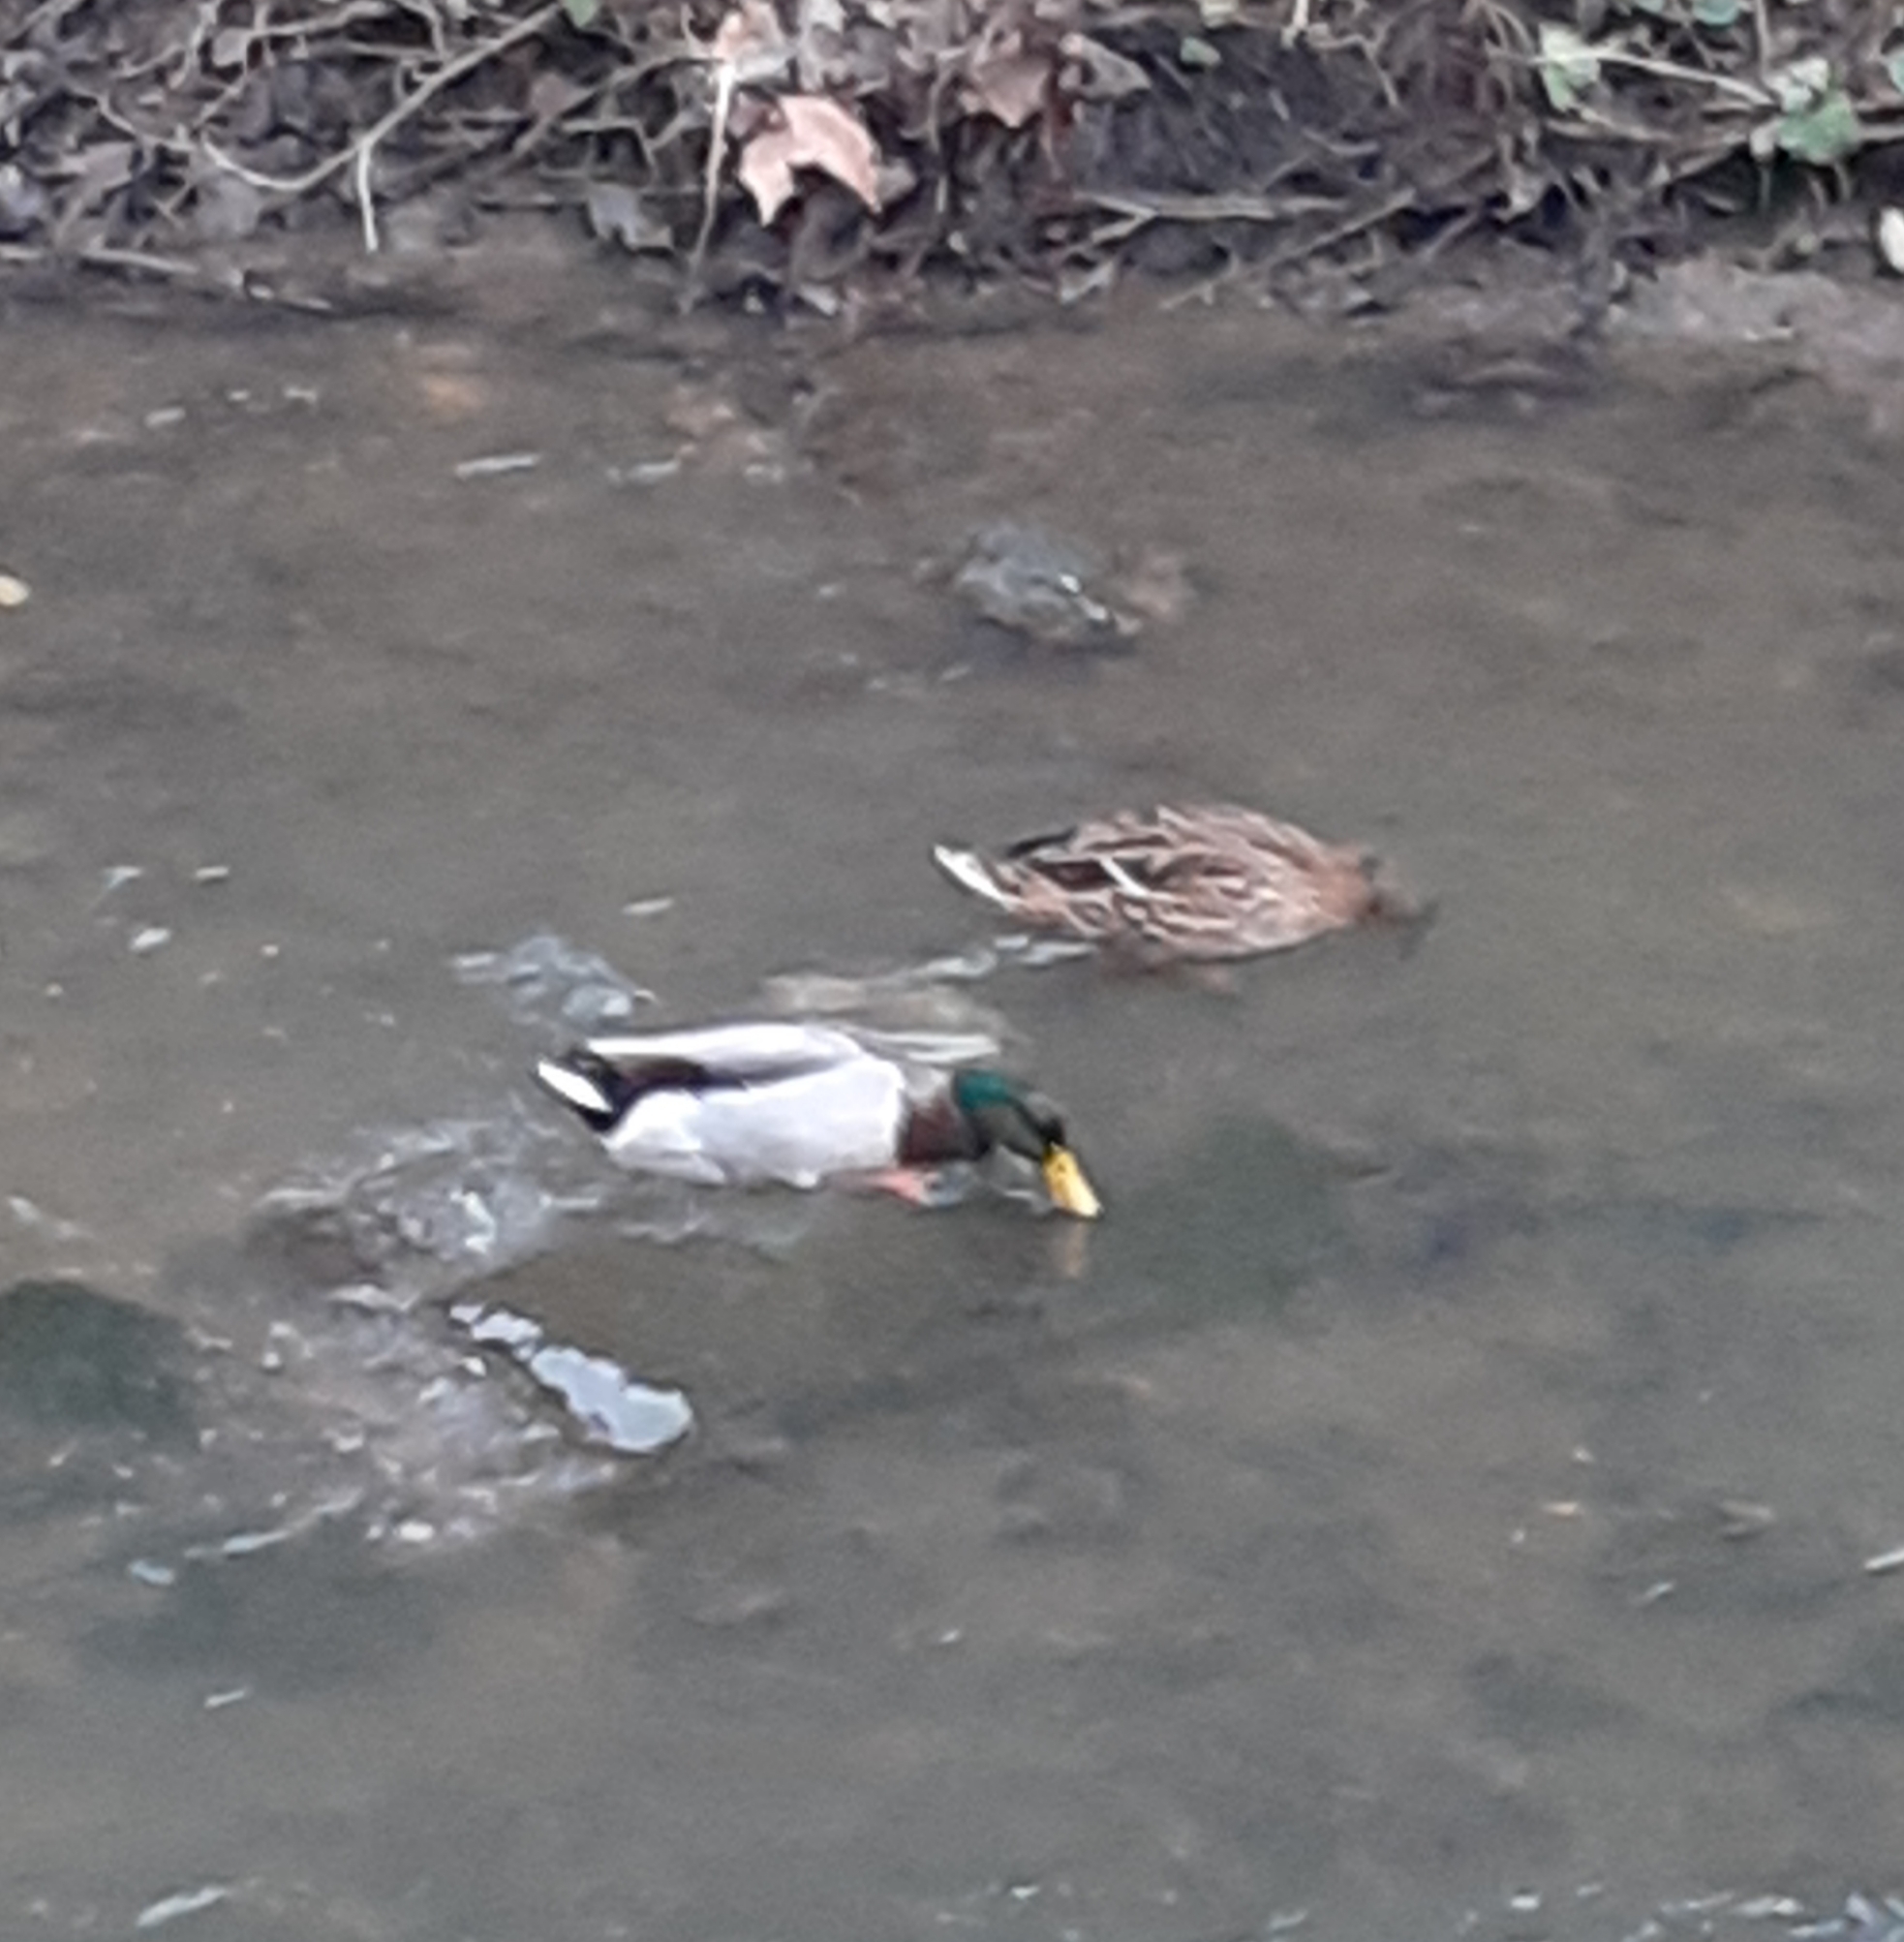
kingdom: Animalia
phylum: Chordata
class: Aves
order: Anseriformes
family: Anatidae
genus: Anas
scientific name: Anas platyrhynchos
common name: Mallard
